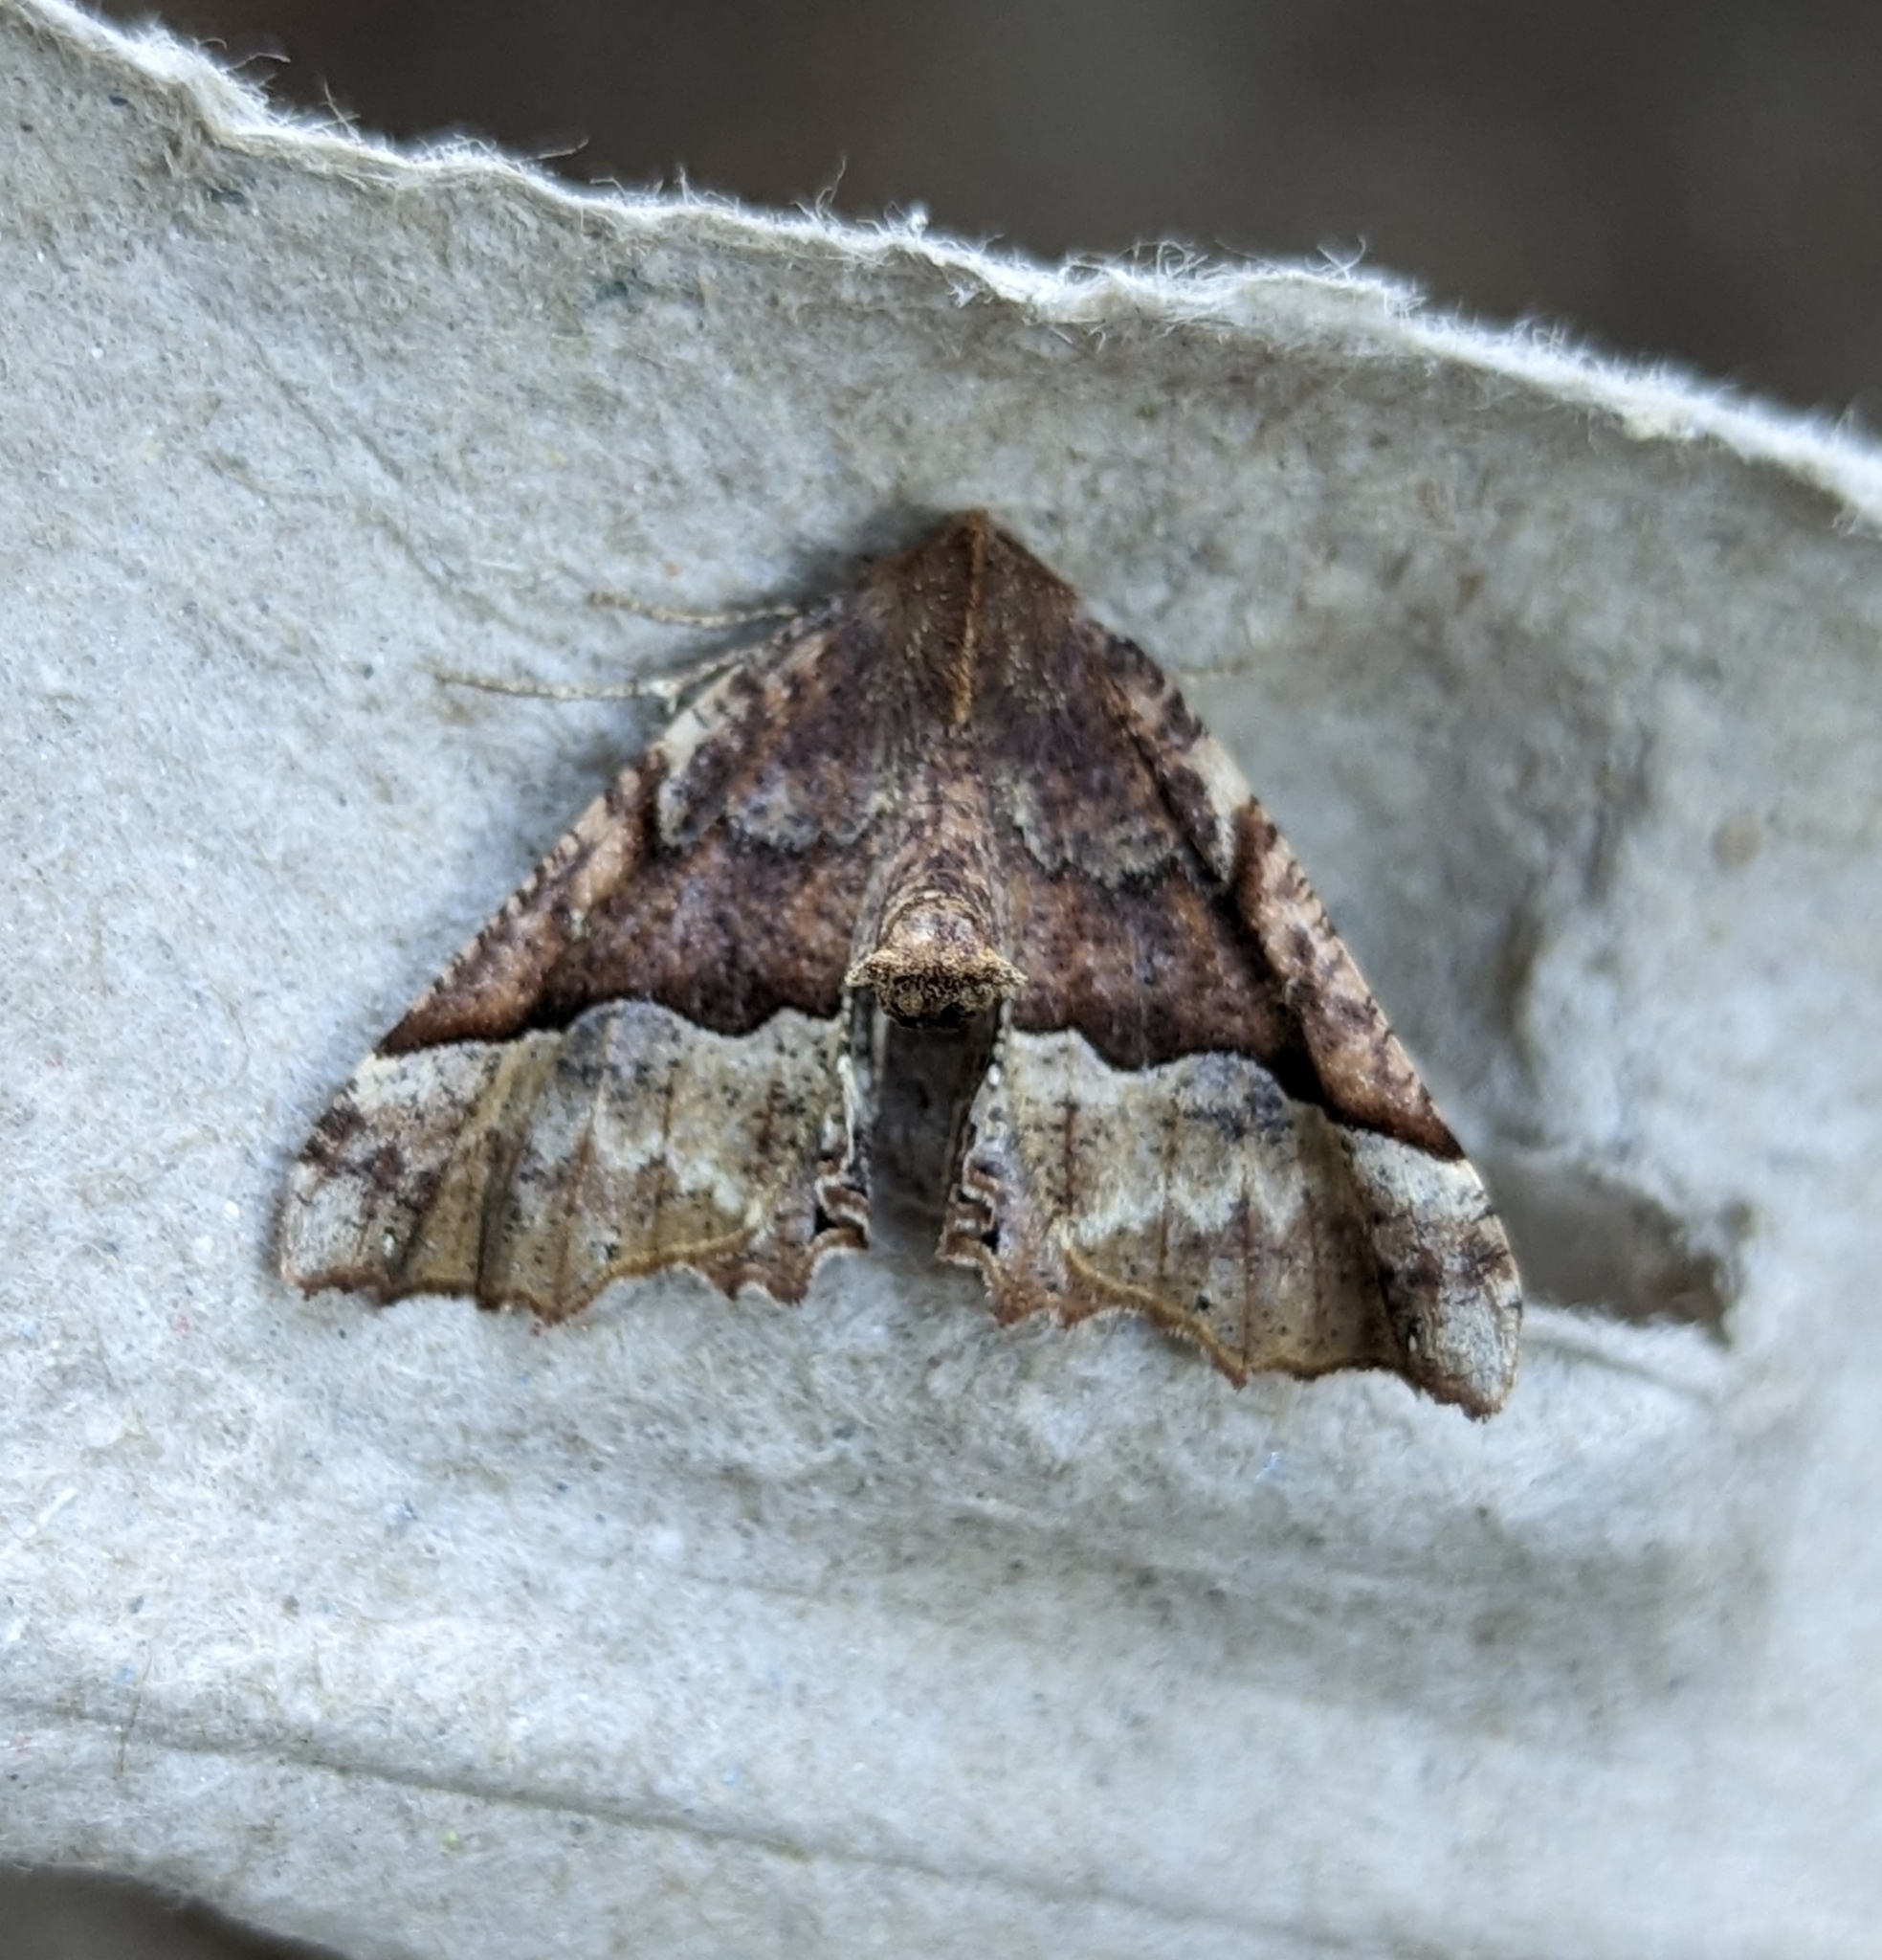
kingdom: Animalia
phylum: Arthropoda
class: Insecta
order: Lepidoptera
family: Geometridae
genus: Pero
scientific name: Pero morrisonaria
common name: Morrison's pero
